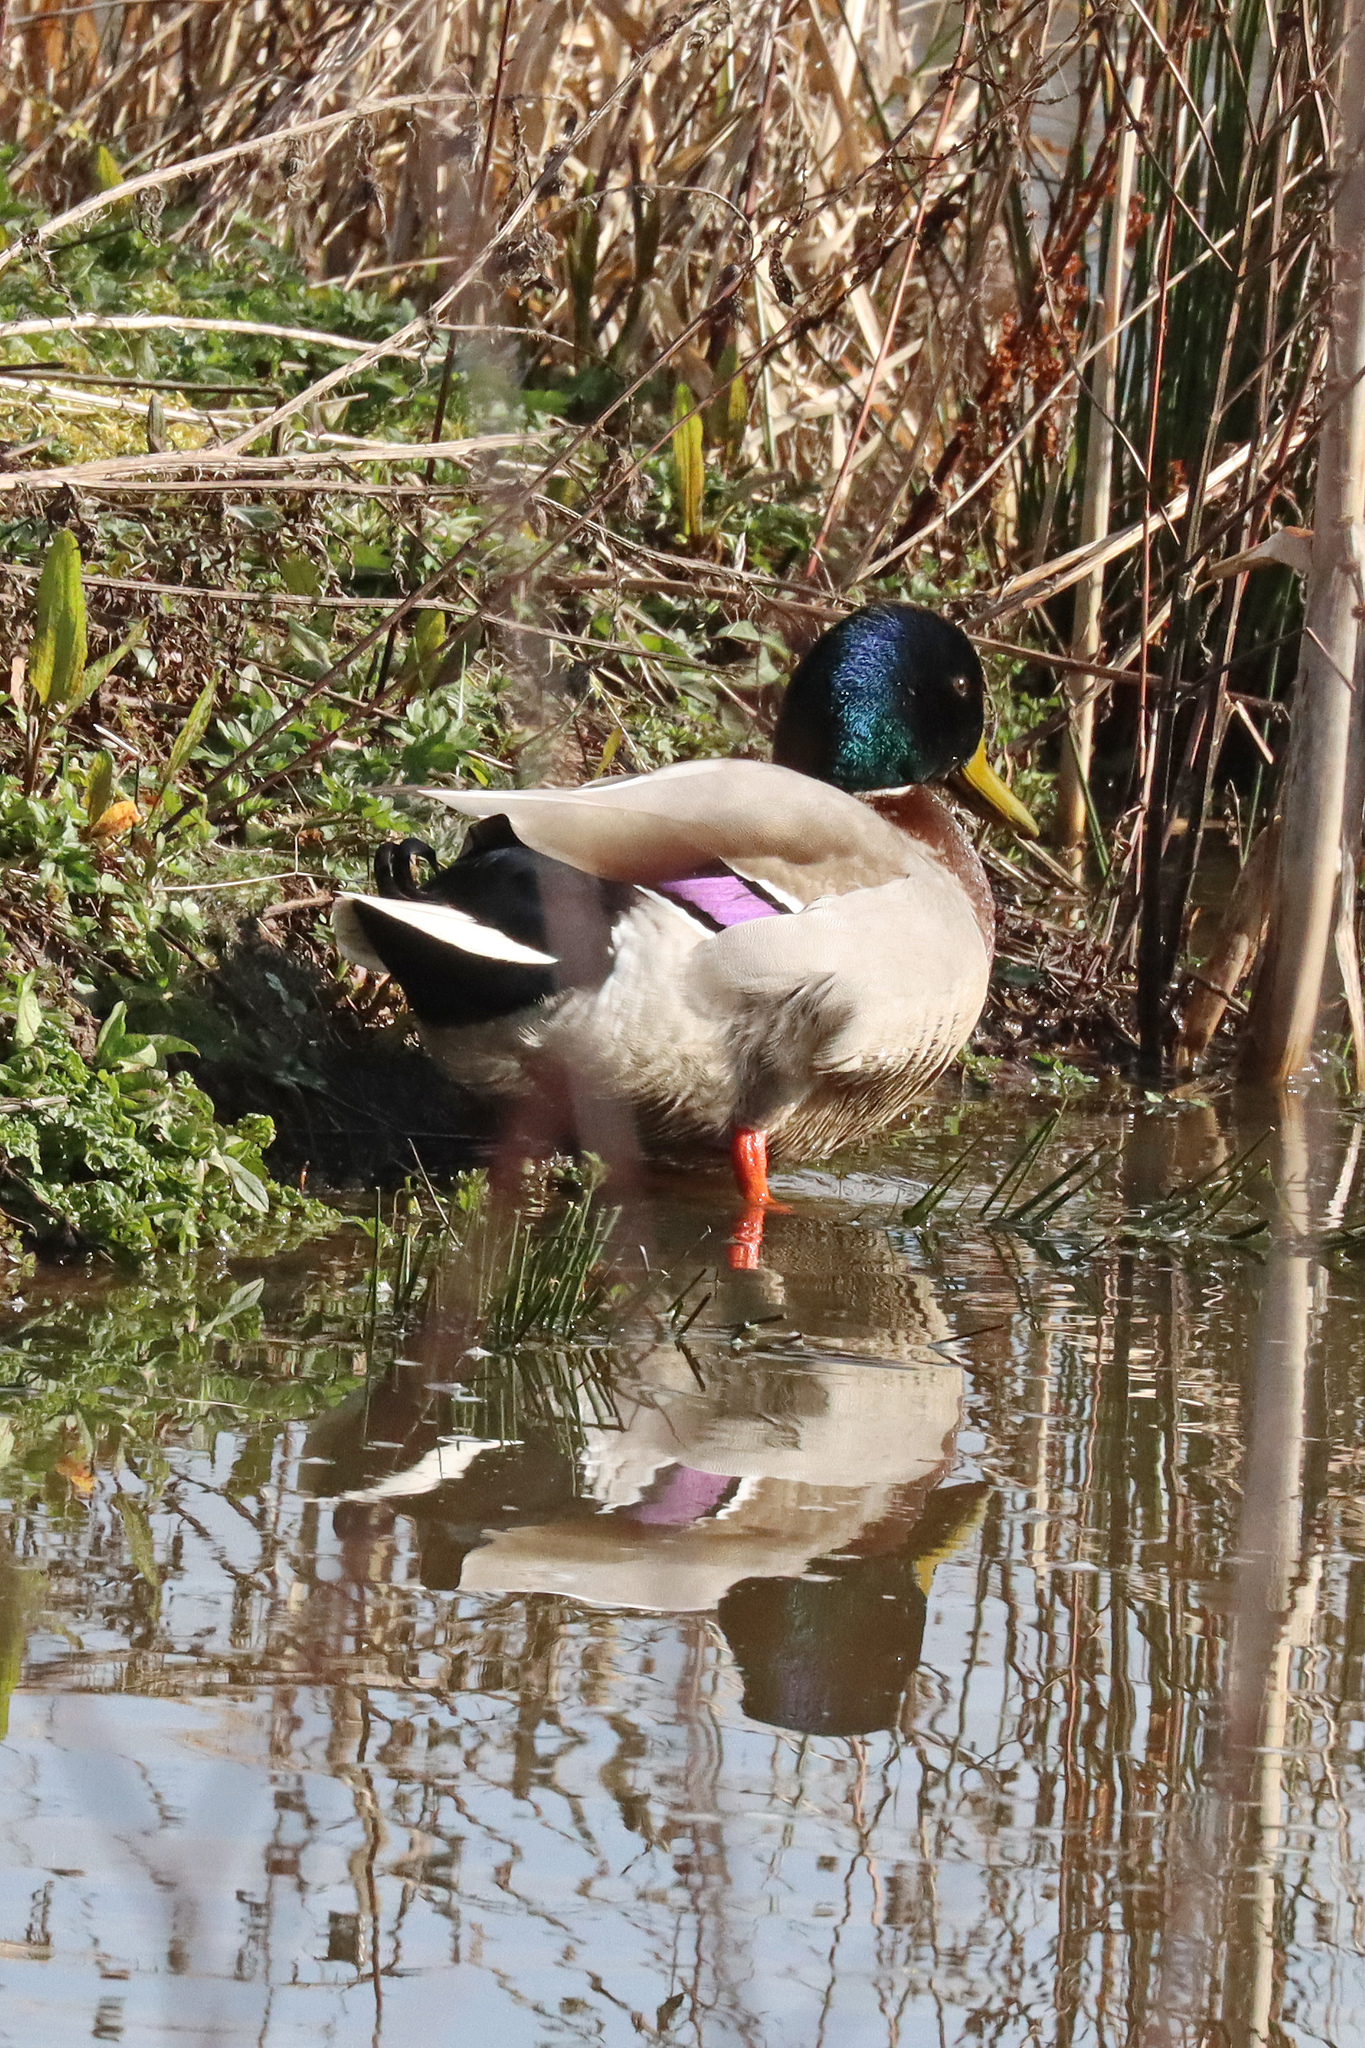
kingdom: Animalia
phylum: Chordata
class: Aves
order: Anseriformes
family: Anatidae
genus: Anas
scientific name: Anas platyrhynchos
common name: Mallard
